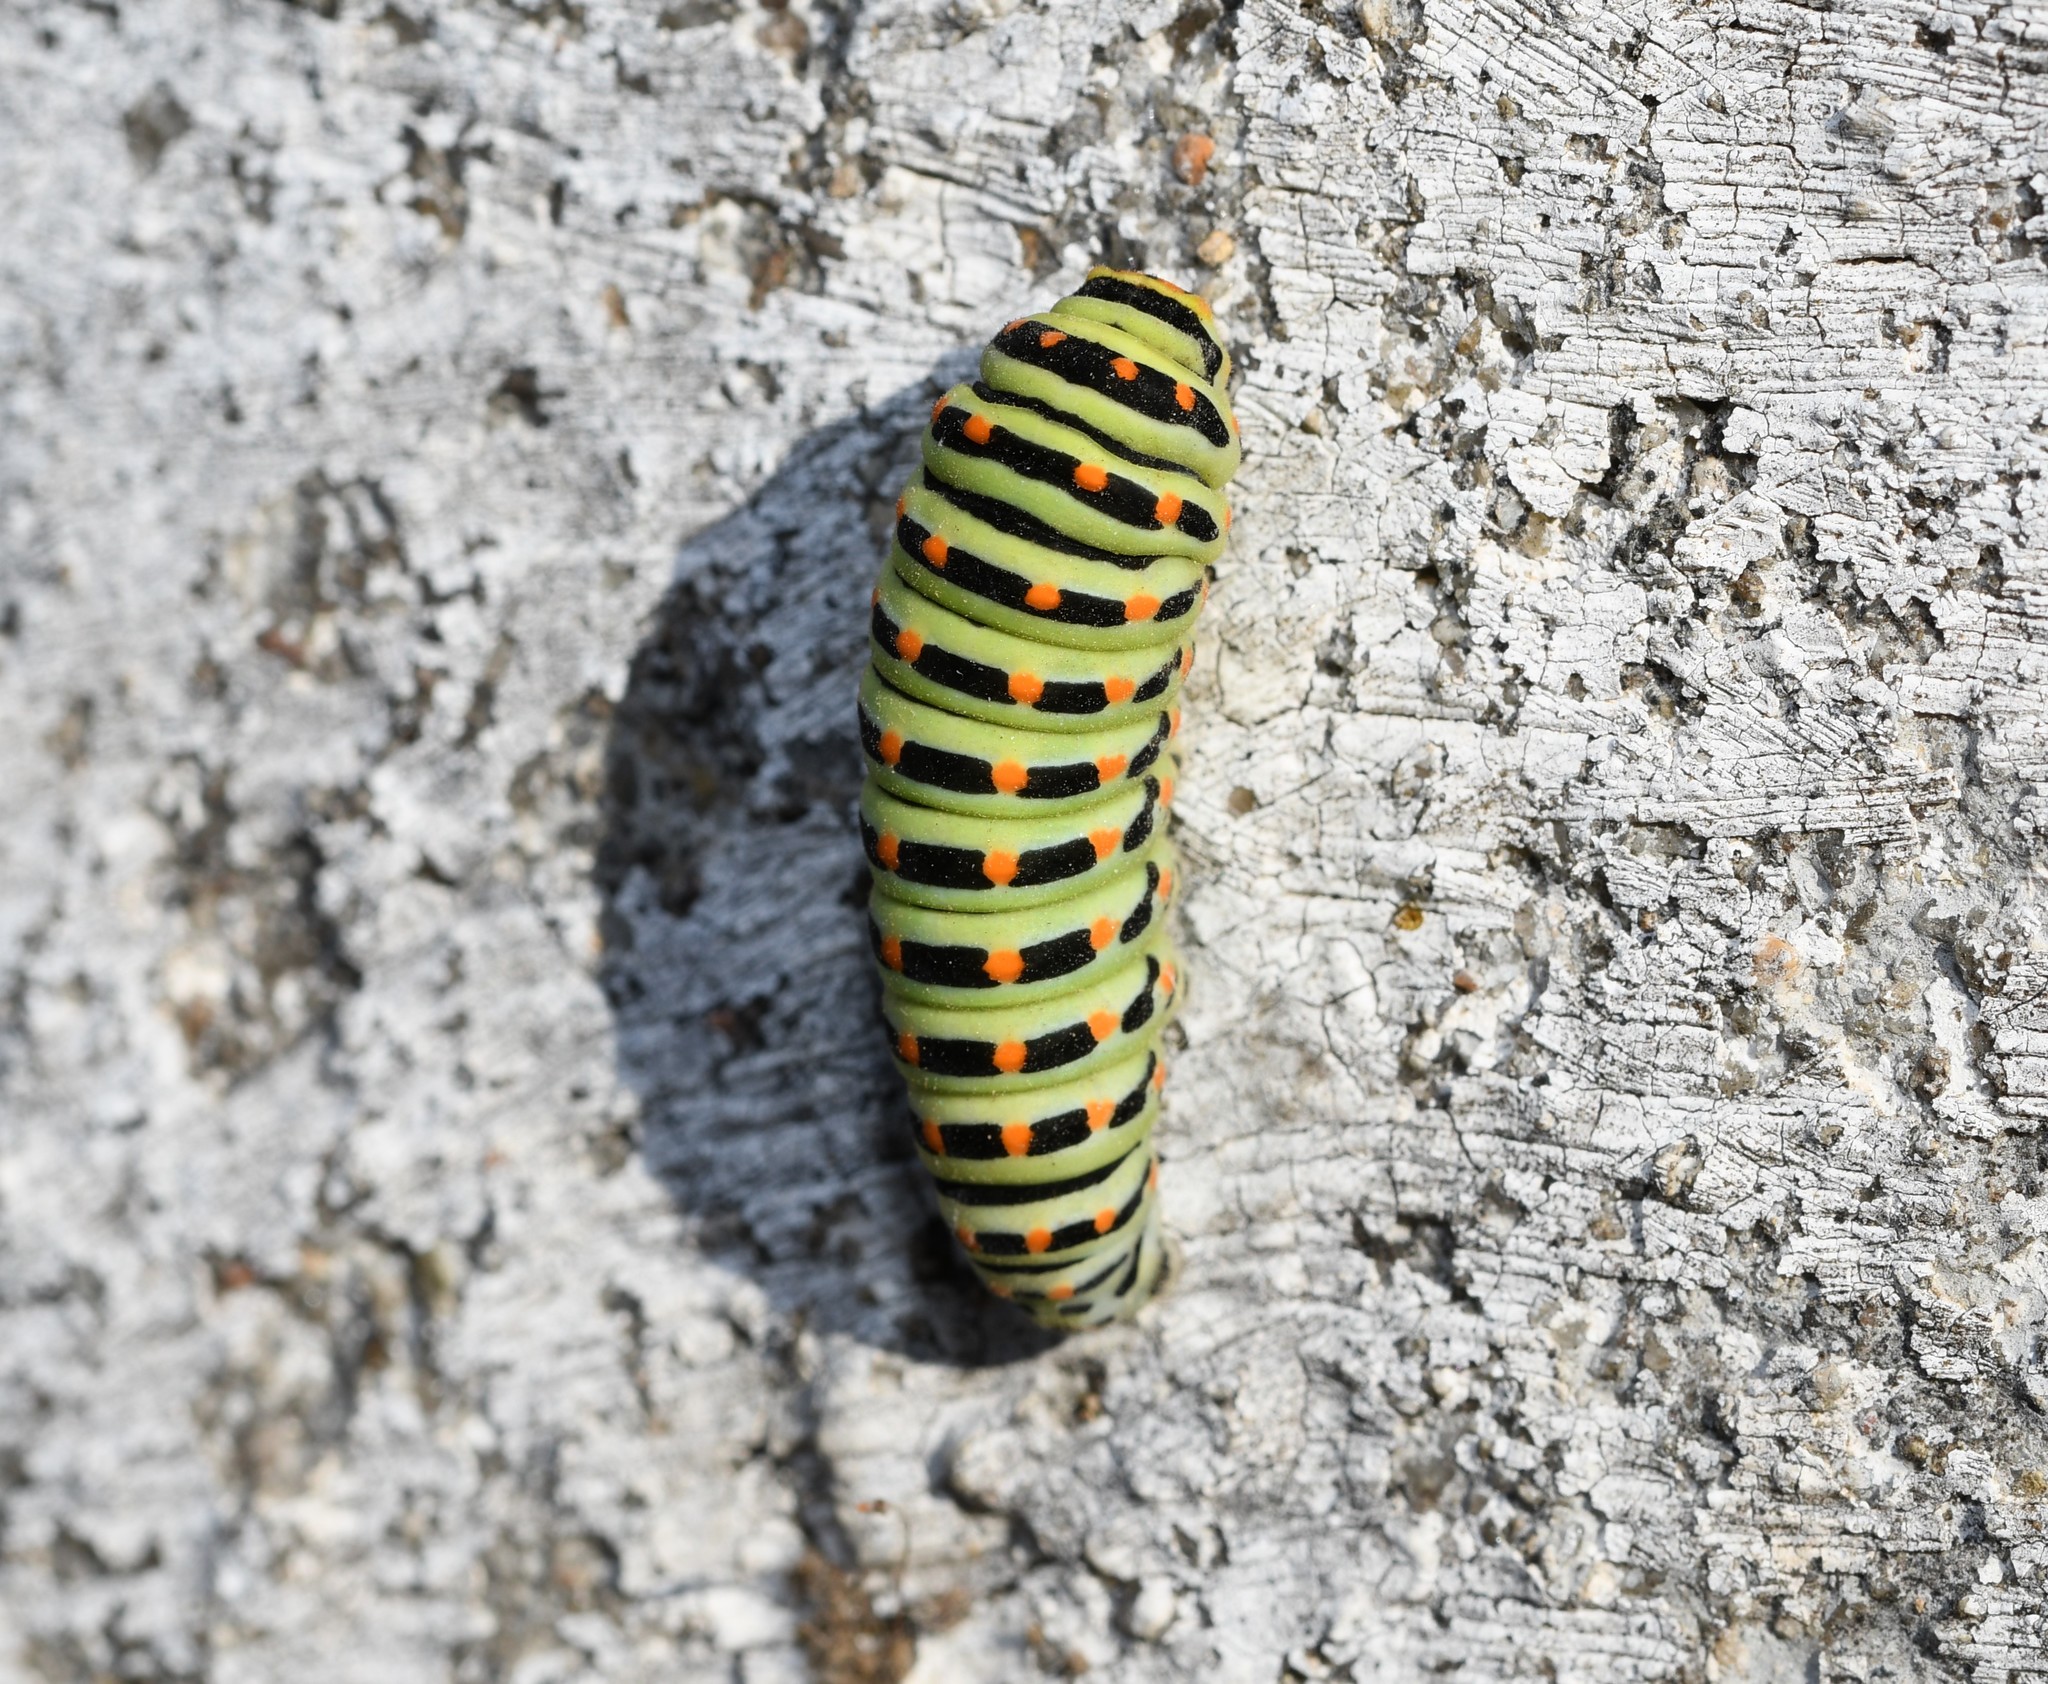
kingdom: Animalia
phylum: Arthropoda
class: Insecta
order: Lepidoptera
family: Papilionidae
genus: Papilio
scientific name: Papilio machaon
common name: Swallowtail
